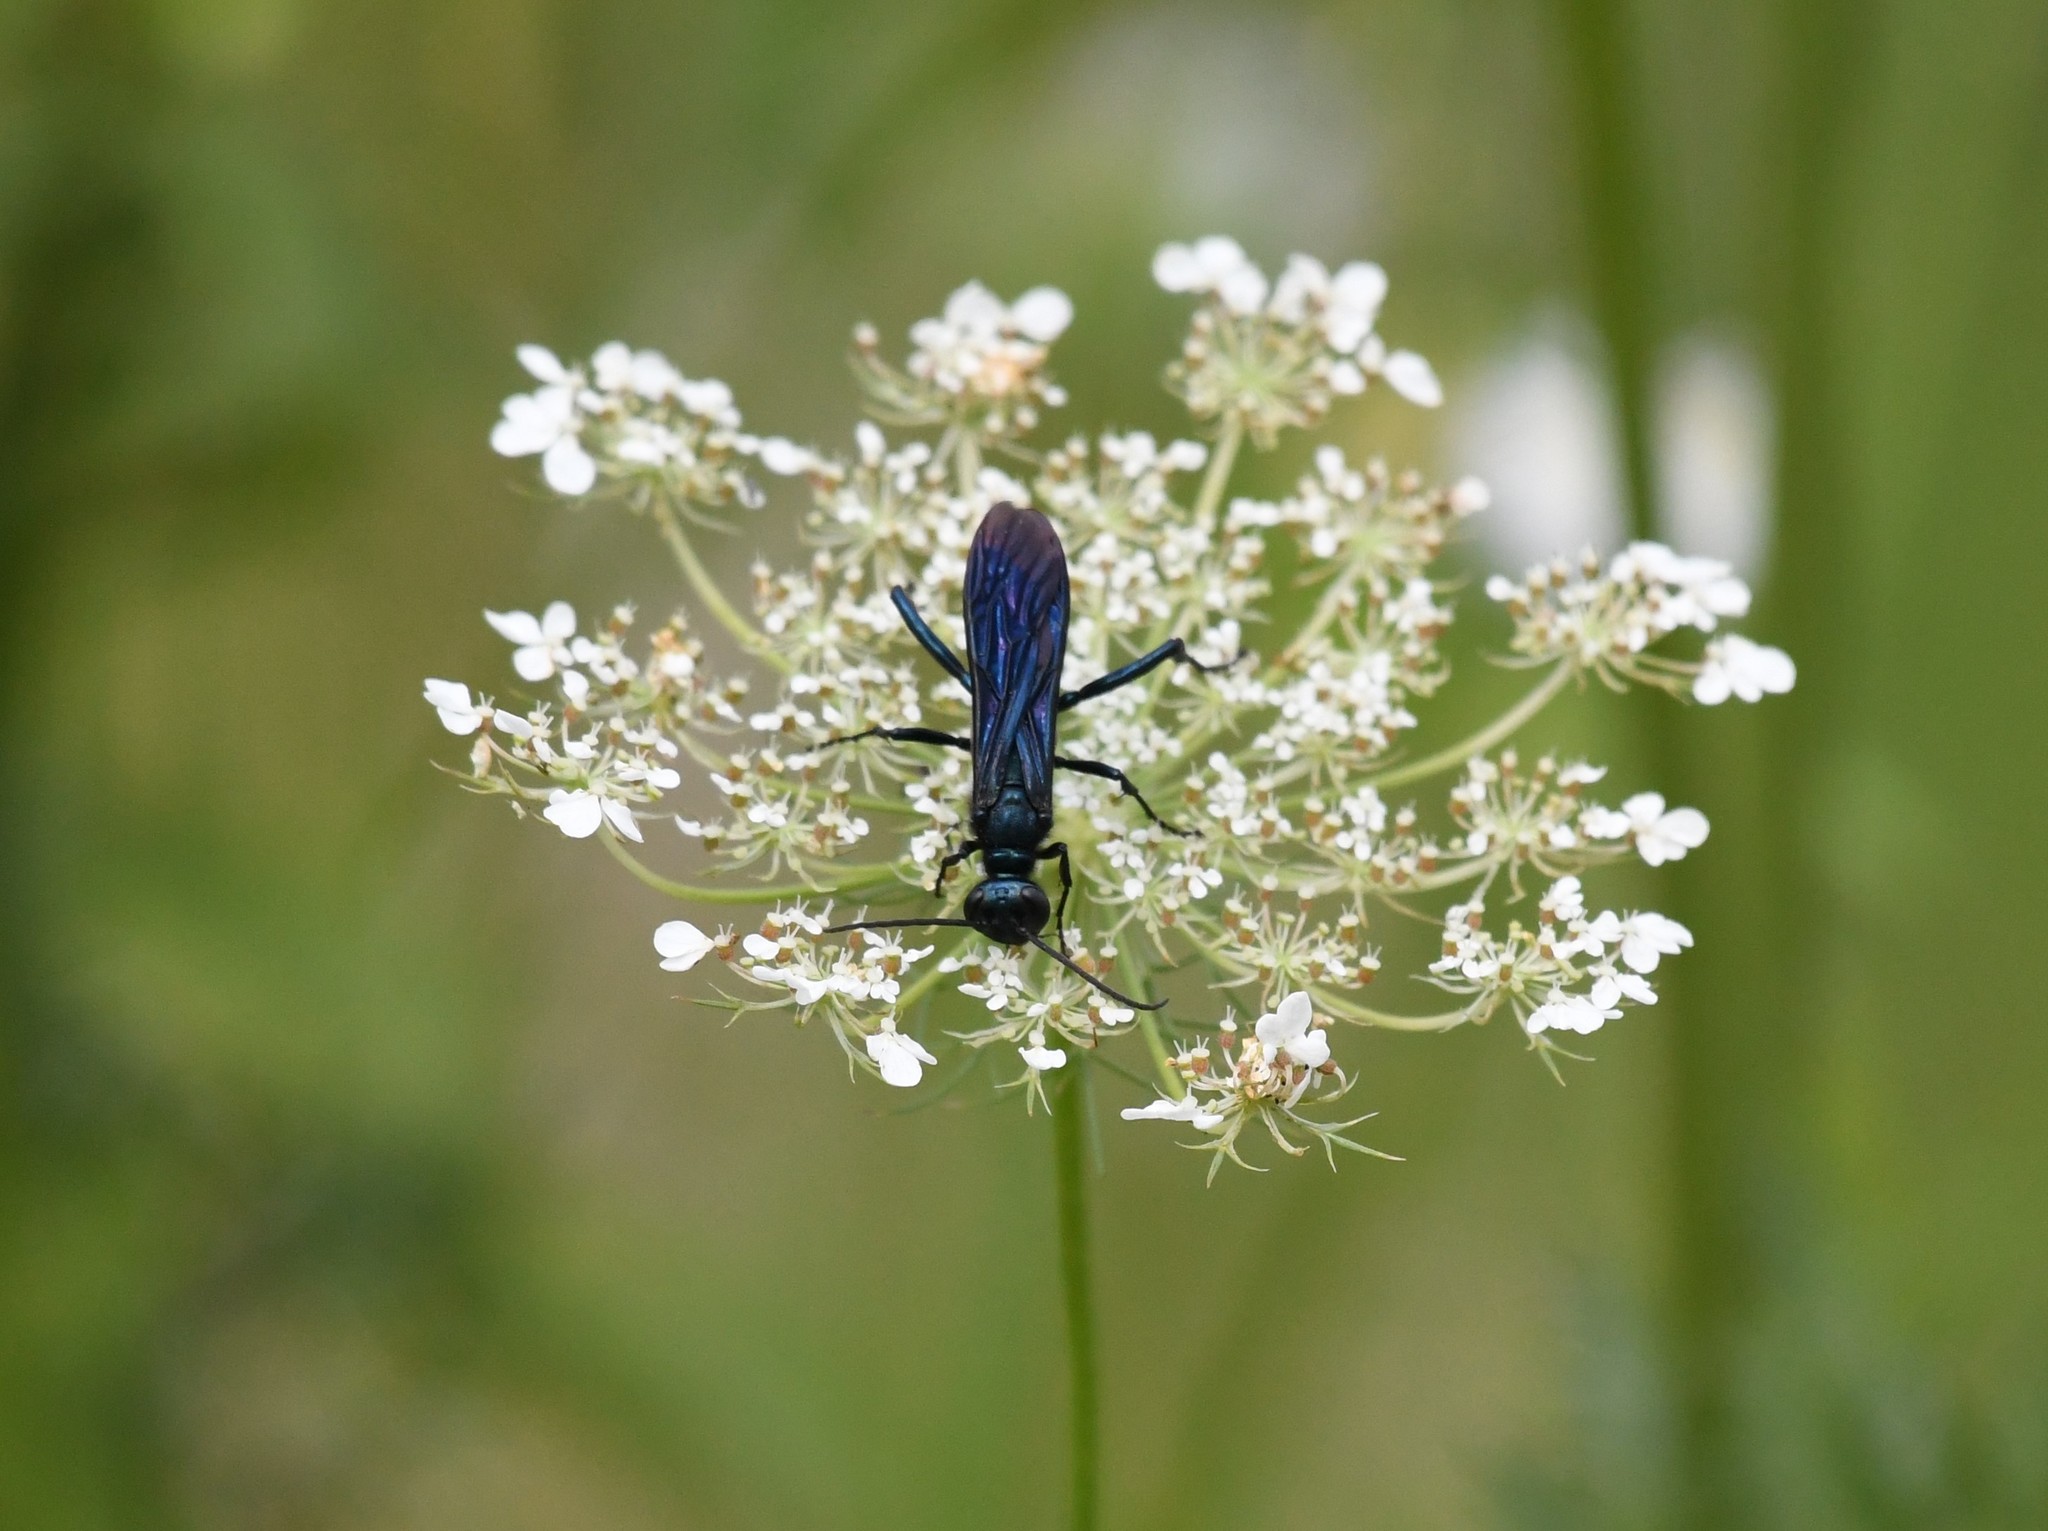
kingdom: Animalia
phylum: Arthropoda
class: Insecta
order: Hymenoptera
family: Sphecidae
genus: Chalybion
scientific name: Chalybion californicum
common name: Mud dauber
